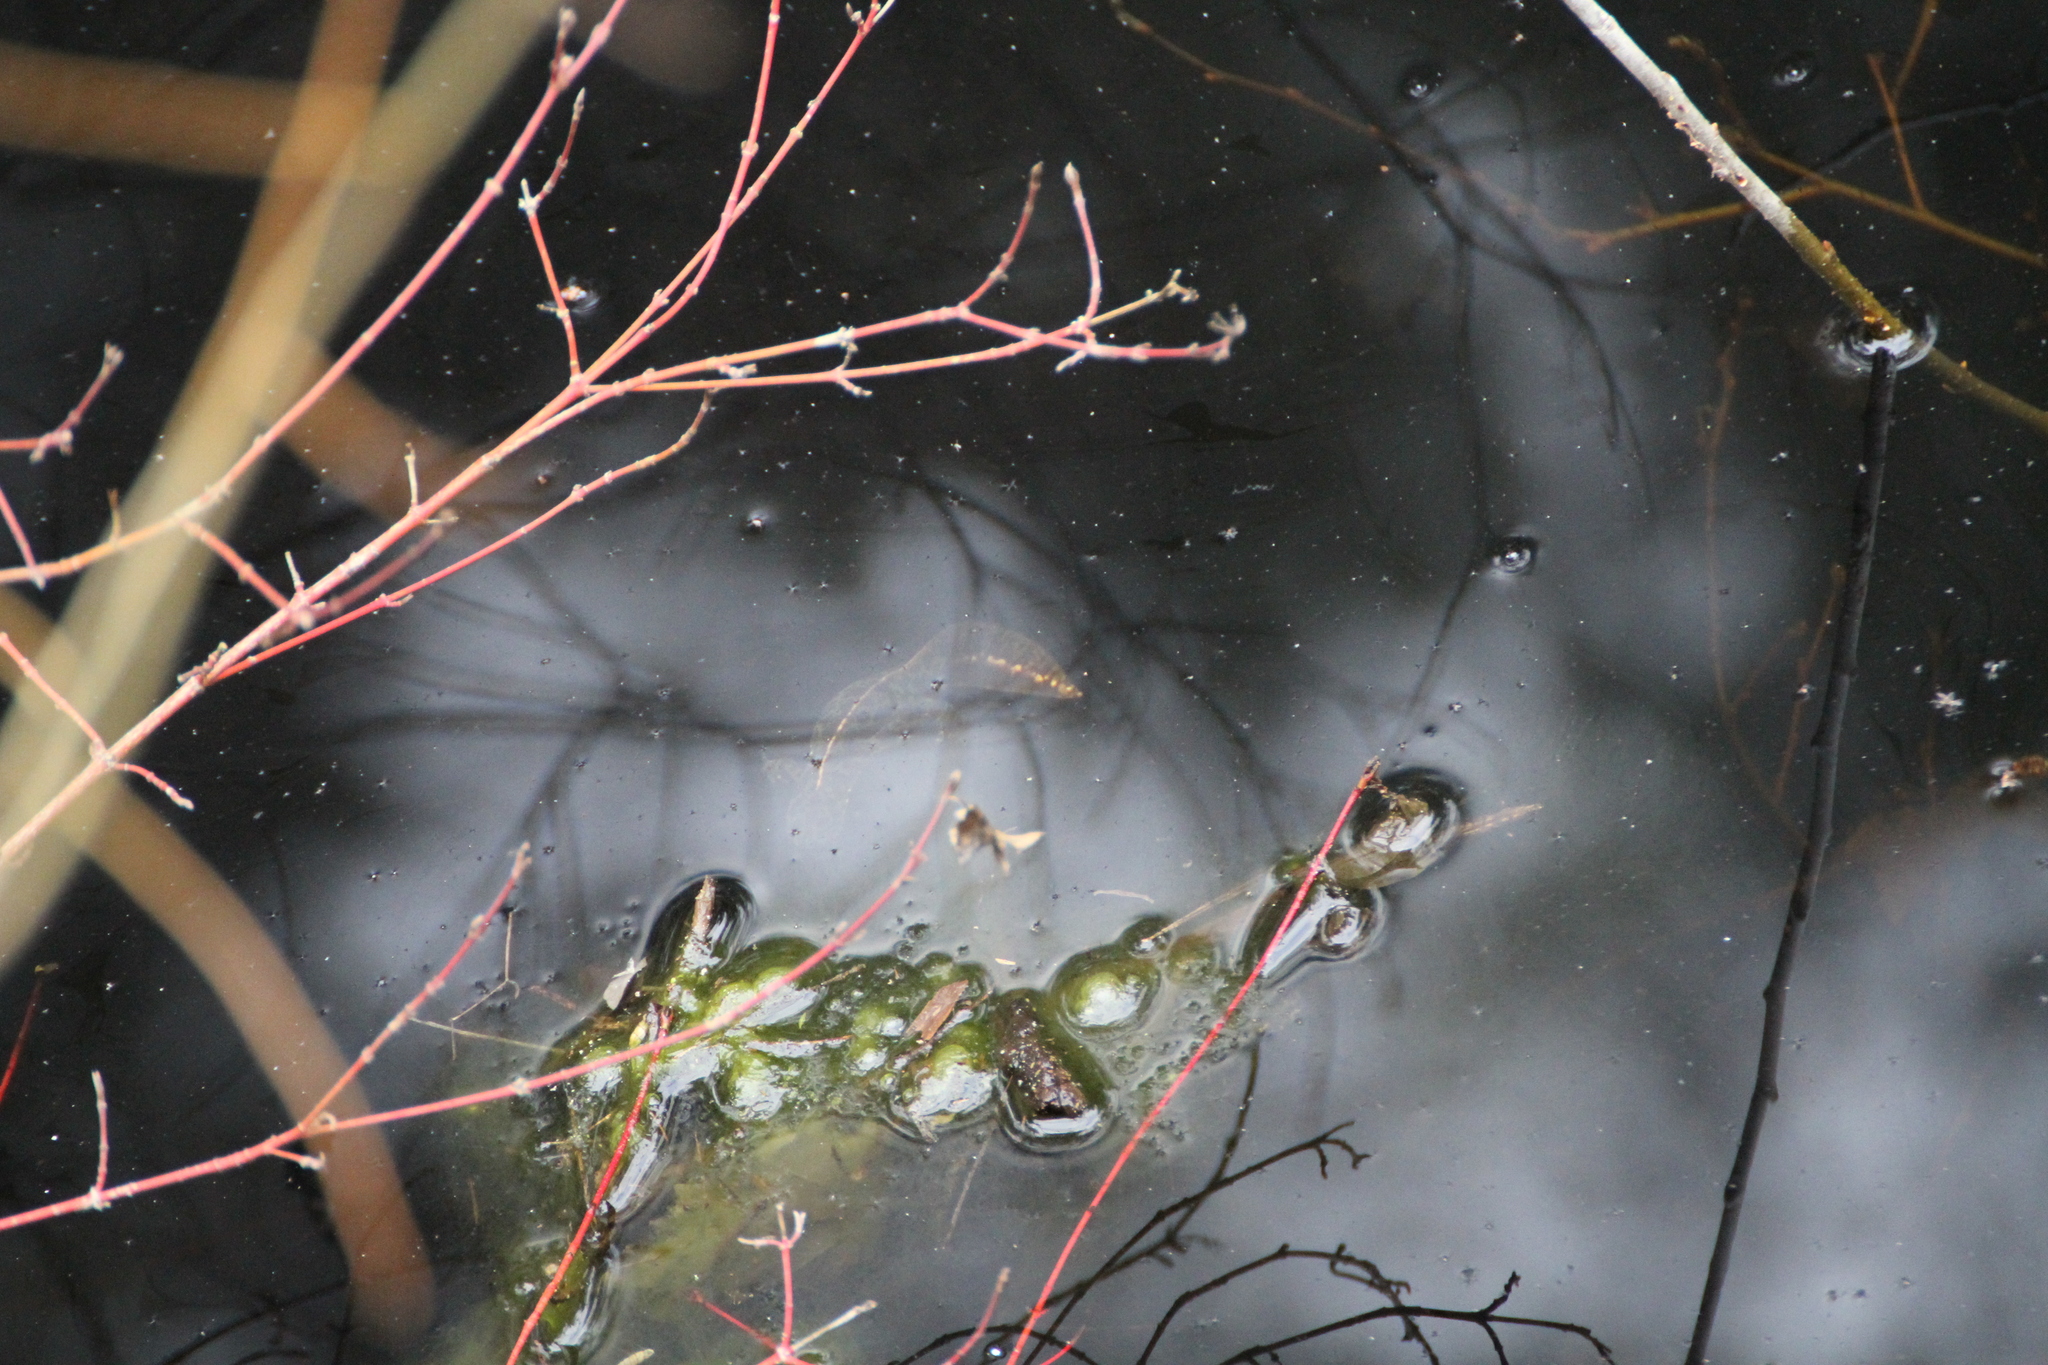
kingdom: Animalia
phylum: Chordata
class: Amphibia
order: Caudata
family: Salamandridae
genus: Triturus
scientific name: Triturus marmoratus
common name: Marbled newt
